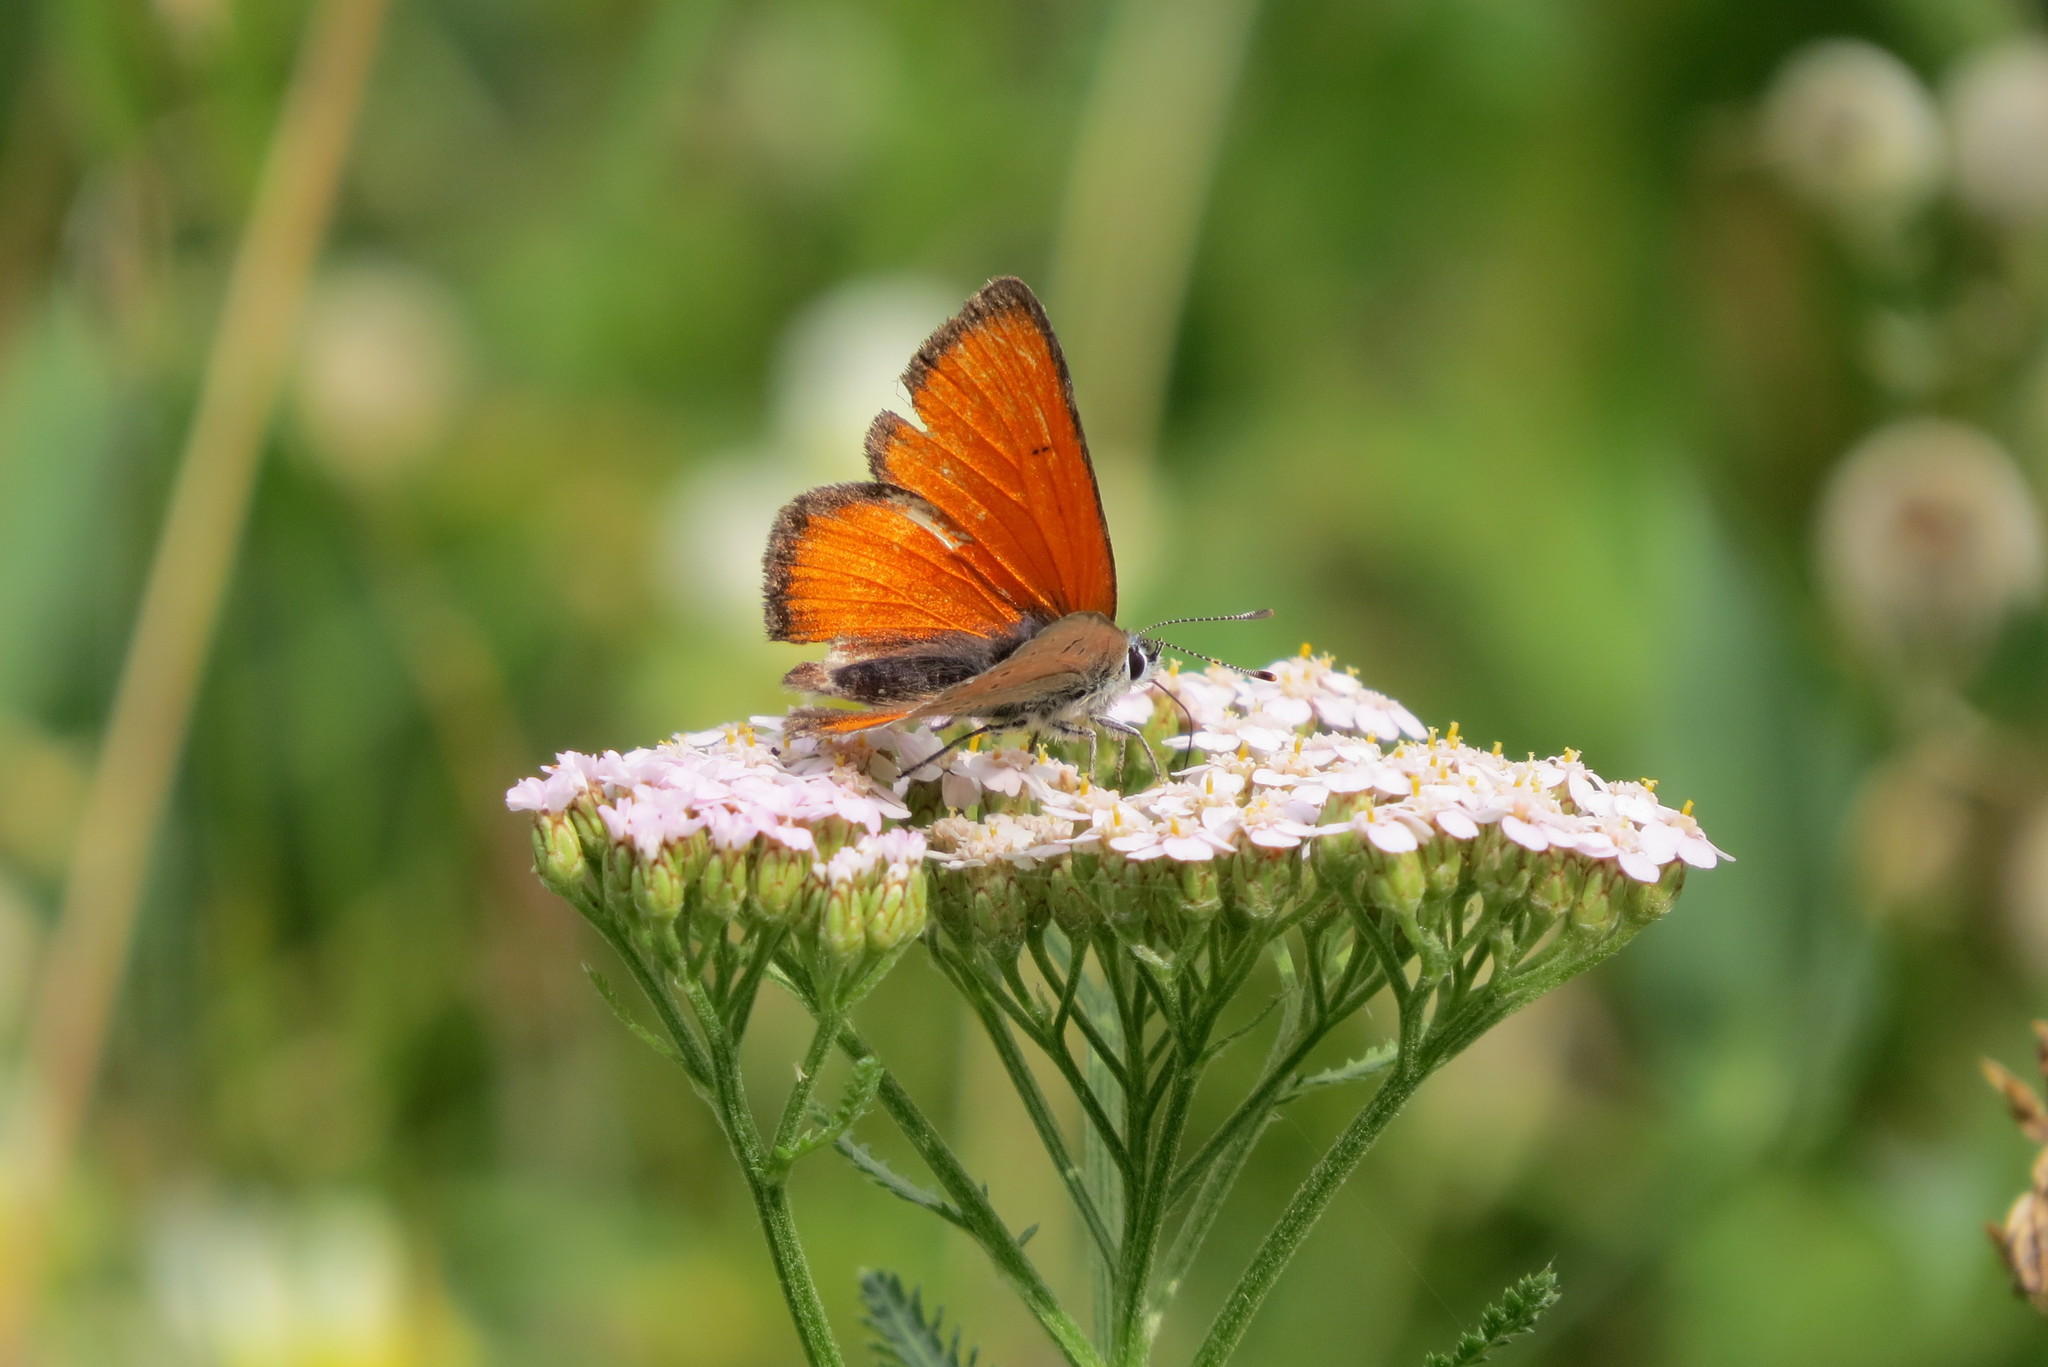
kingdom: Animalia
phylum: Arthropoda
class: Insecta
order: Lepidoptera
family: Lycaenidae
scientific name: Lycaenidae
